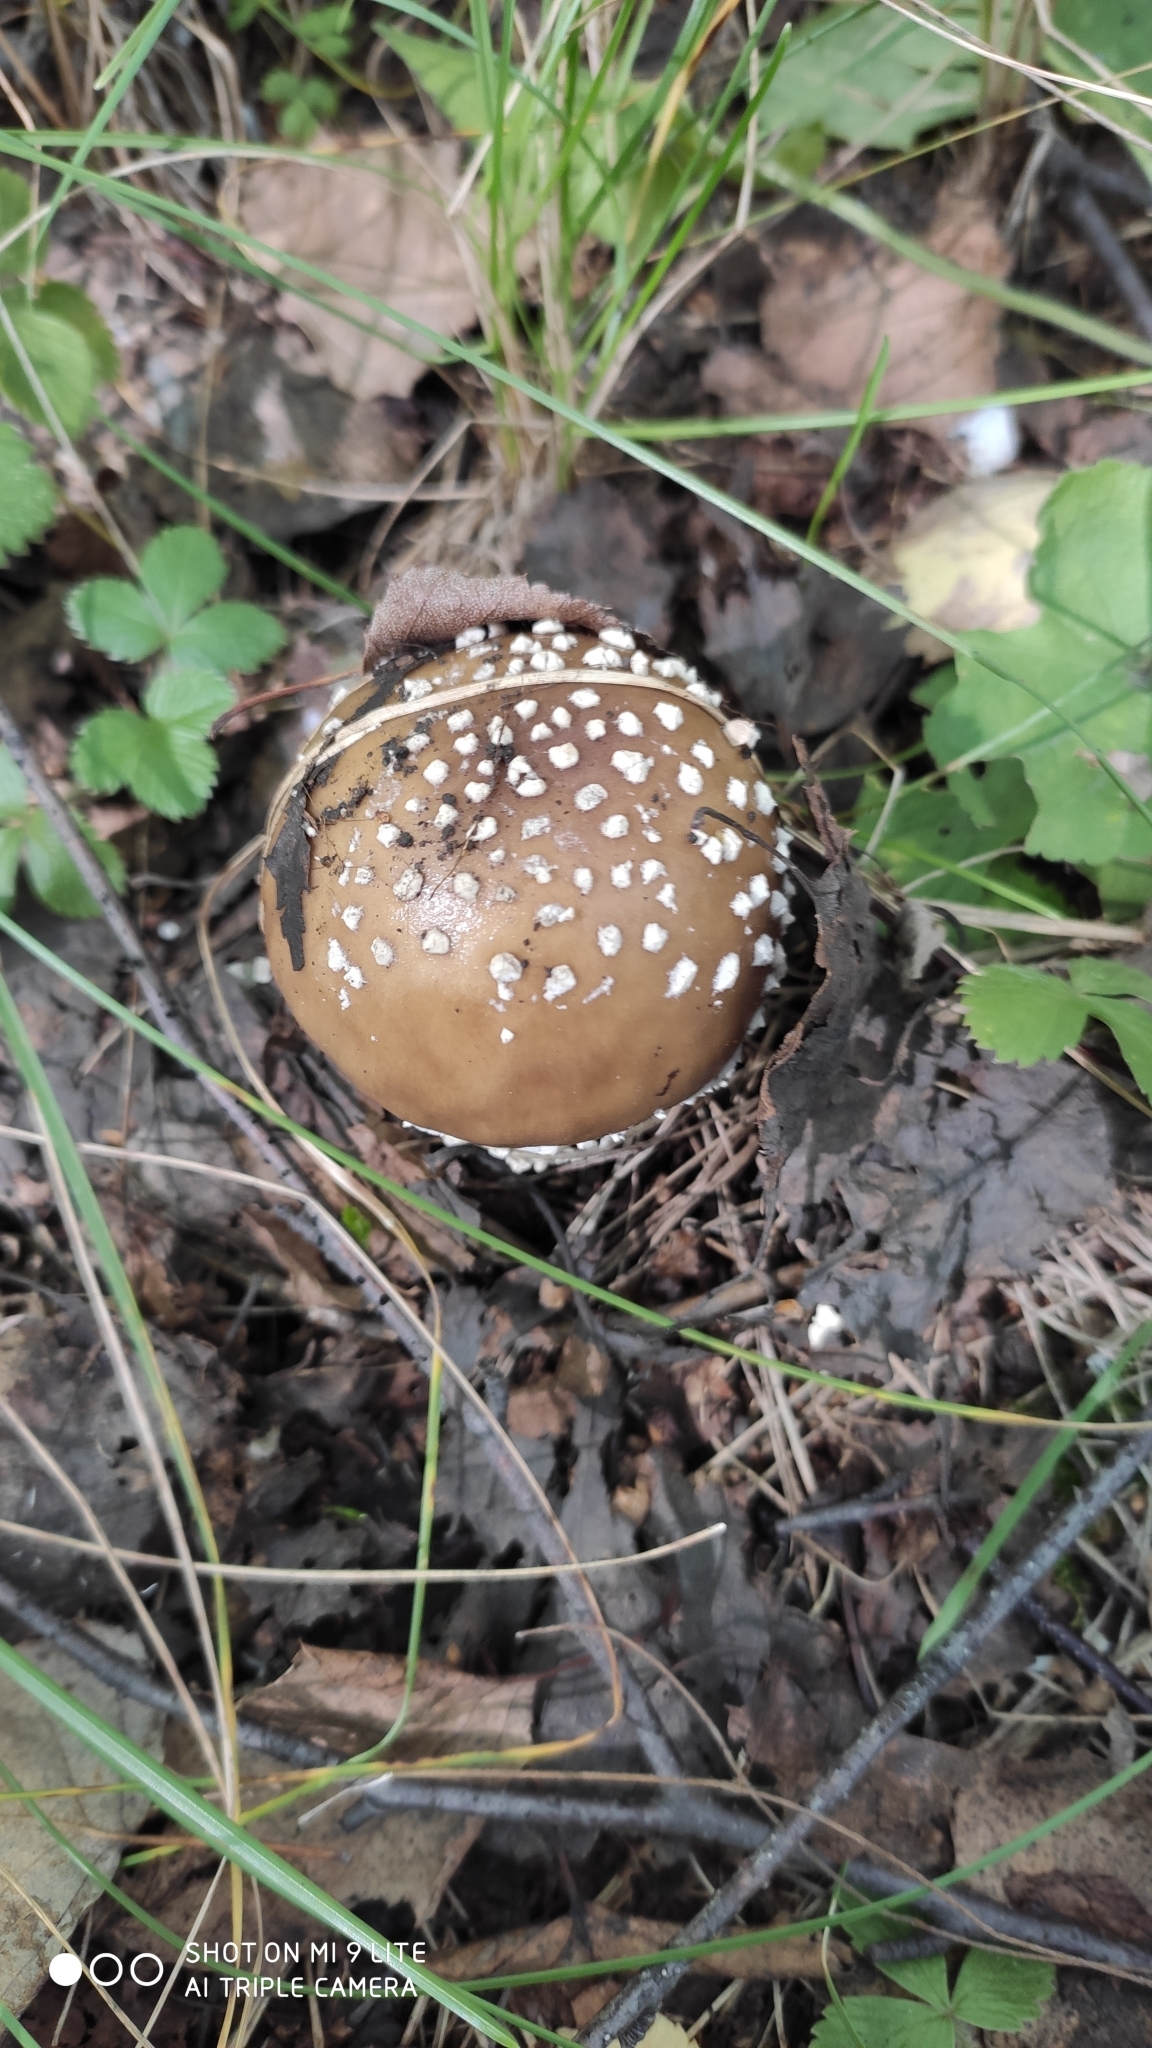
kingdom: Fungi
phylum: Basidiomycota
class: Agaricomycetes
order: Agaricales
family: Amanitaceae
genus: Amanita
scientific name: Amanita pantherina
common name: Panthercap
